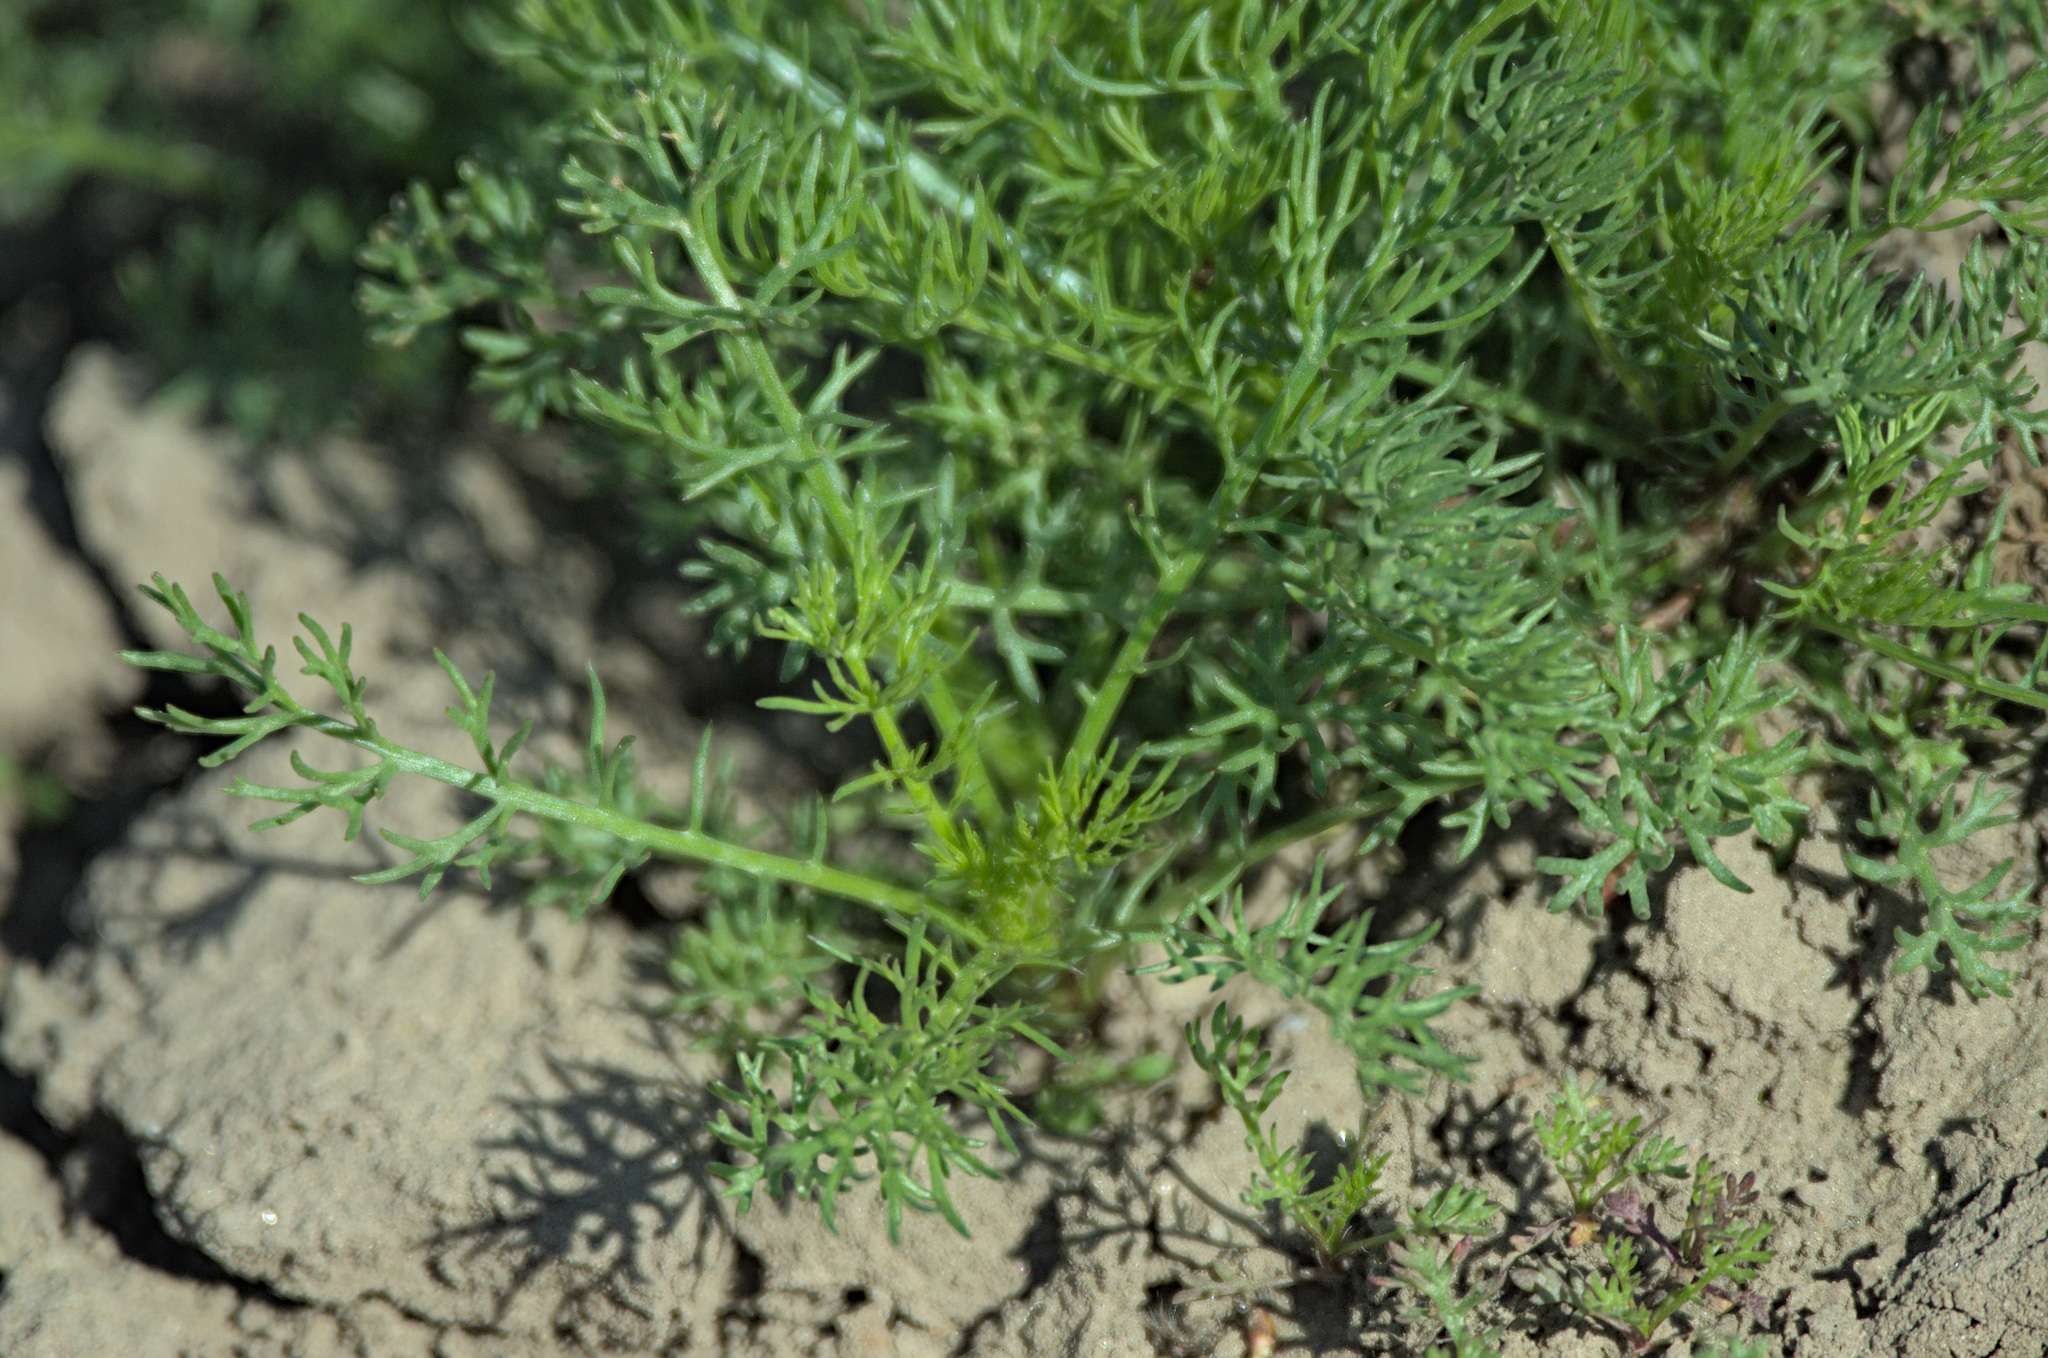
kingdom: Plantae
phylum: Tracheophyta
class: Magnoliopsida
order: Asterales
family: Asteraceae
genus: Tripleurospermum
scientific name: Tripleurospermum inodorum
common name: Scentless mayweed
